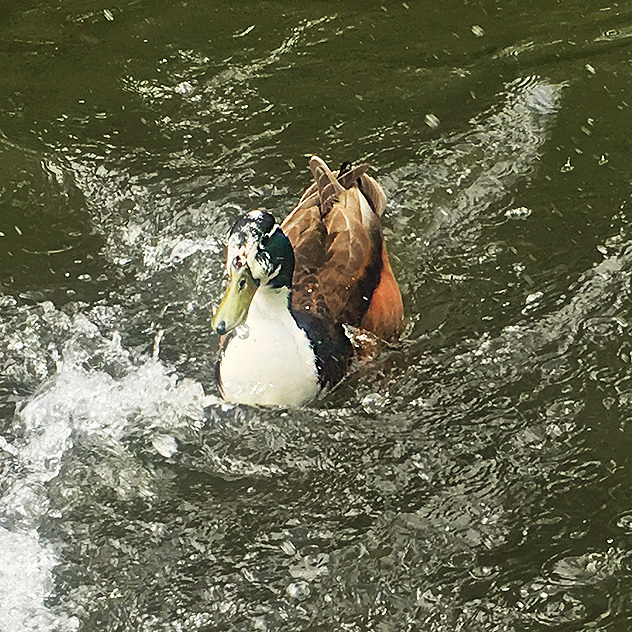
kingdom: Animalia
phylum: Chordata
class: Aves
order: Anseriformes
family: Anatidae
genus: Anas
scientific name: Anas platyrhynchos
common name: Mallard
